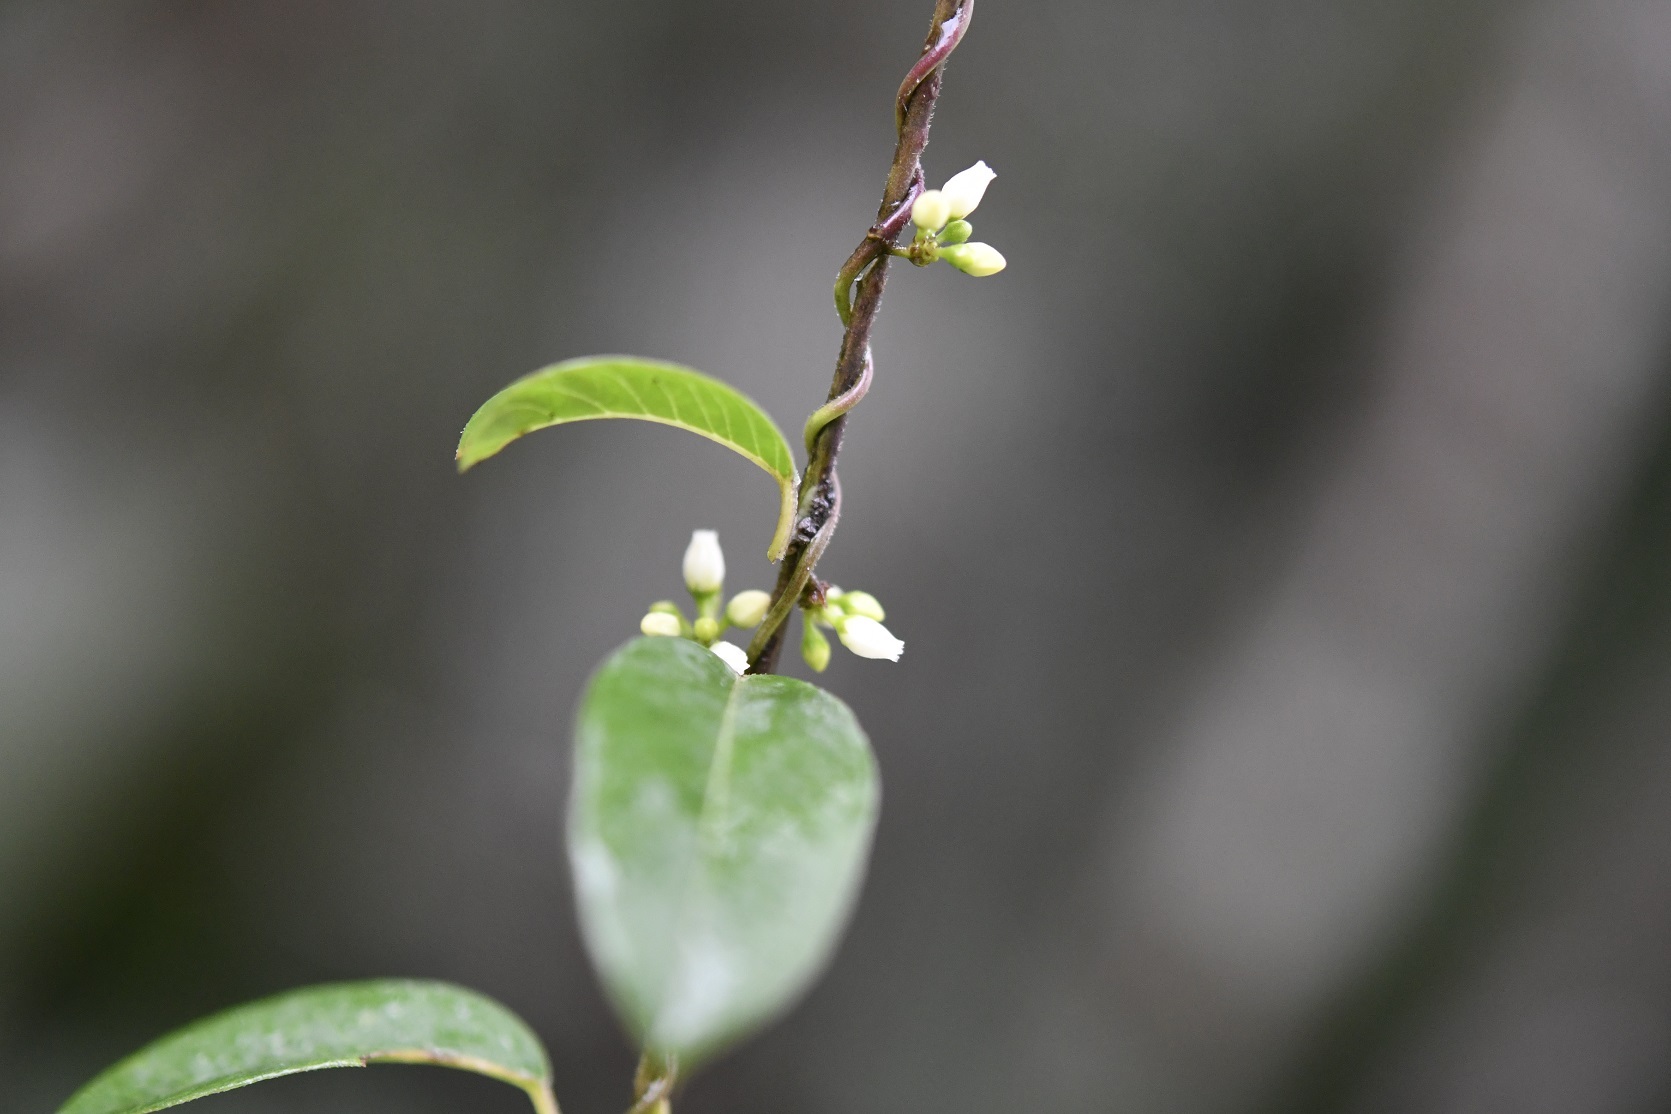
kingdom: Plantae
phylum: Tracheophyta
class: Magnoliopsida
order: Gentianales
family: Apocynaceae
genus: Metastelma
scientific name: Metastelma schlechtendalii
